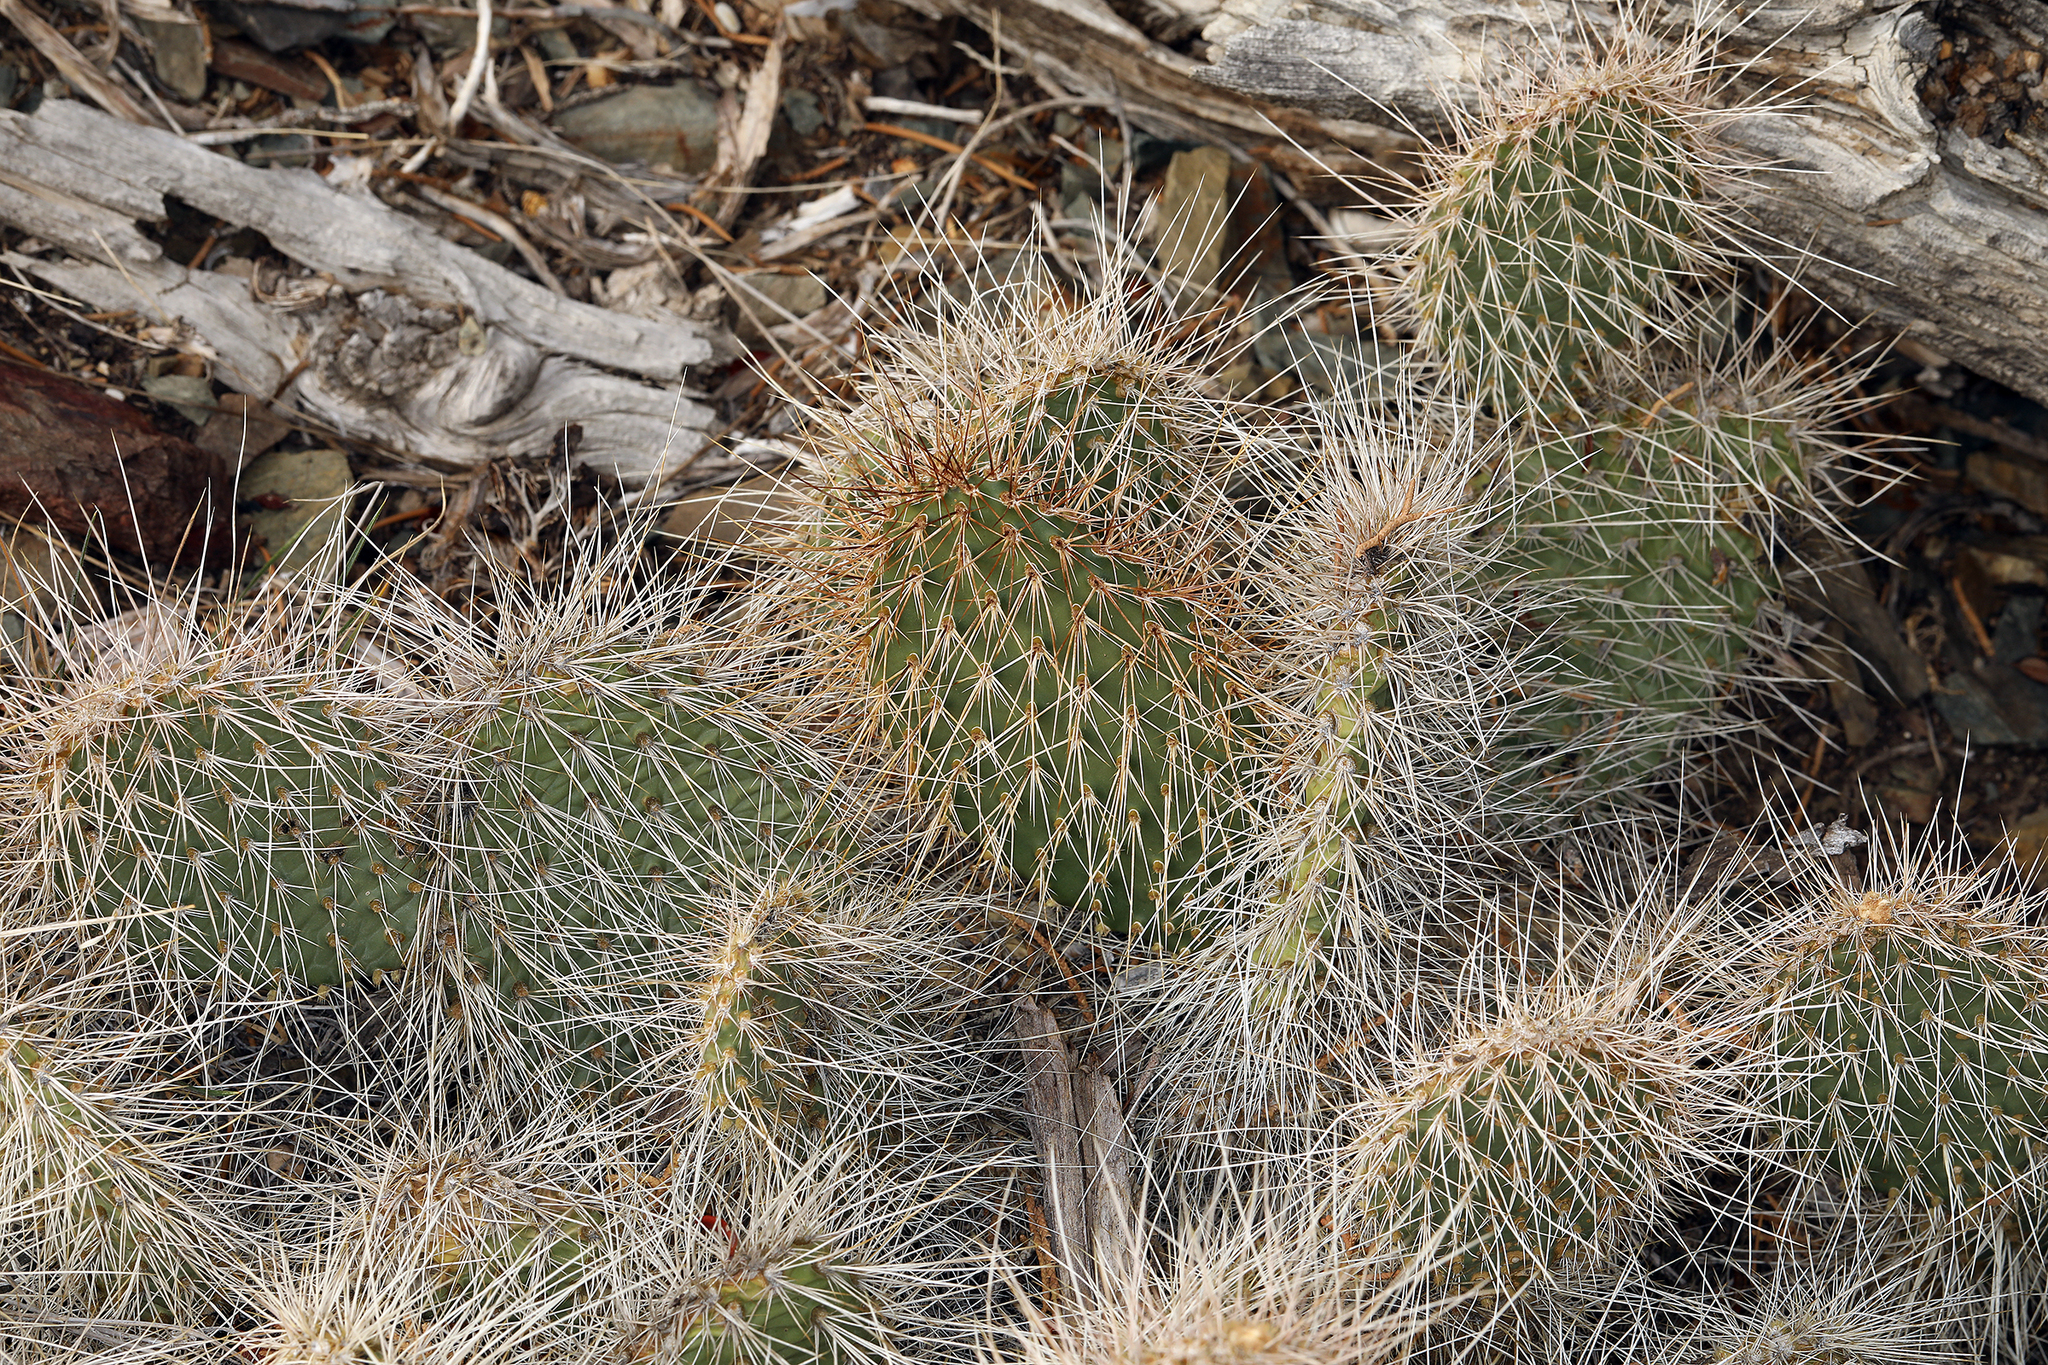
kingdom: Plantae
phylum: Tracheophyta
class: Magnoliopsida
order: Caryophyllales
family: Cactaceae
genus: Opuntia
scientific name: Opuntia polyacantha
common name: Plains prickly-pear
